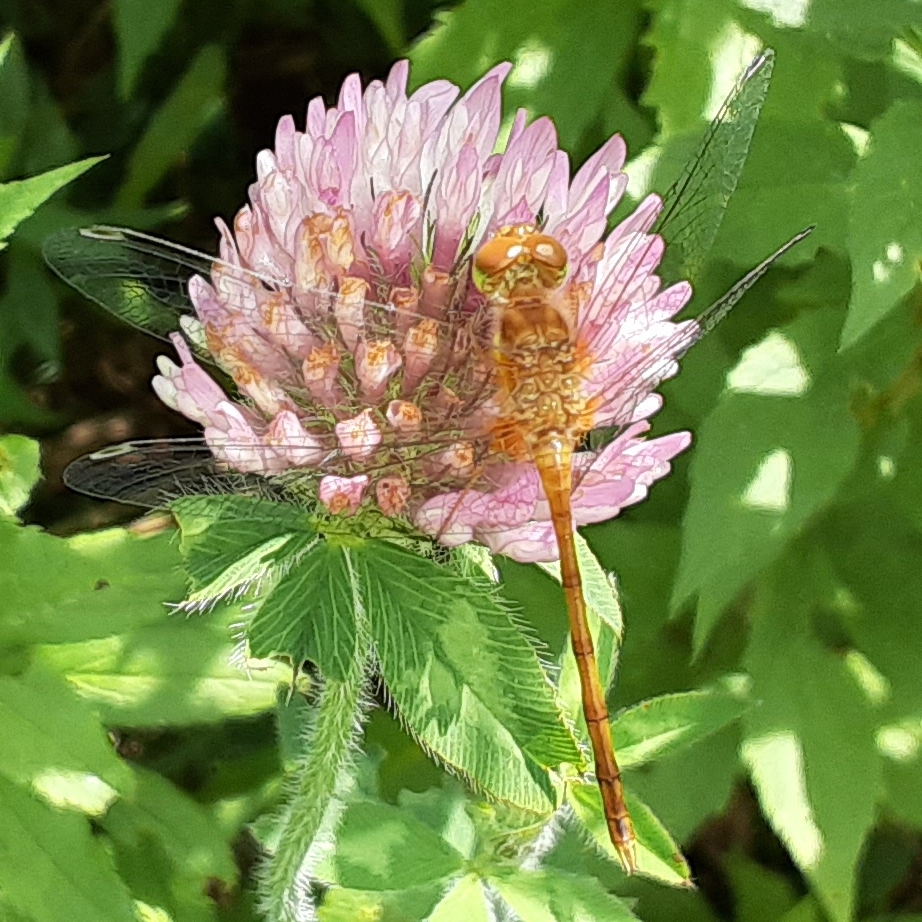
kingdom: Animalia
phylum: Arthropoda
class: Insecta
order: Odonata
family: Libellulidae
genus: Sympetrum
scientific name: Sympetrum vicinum
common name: Autumn meadowhawk
